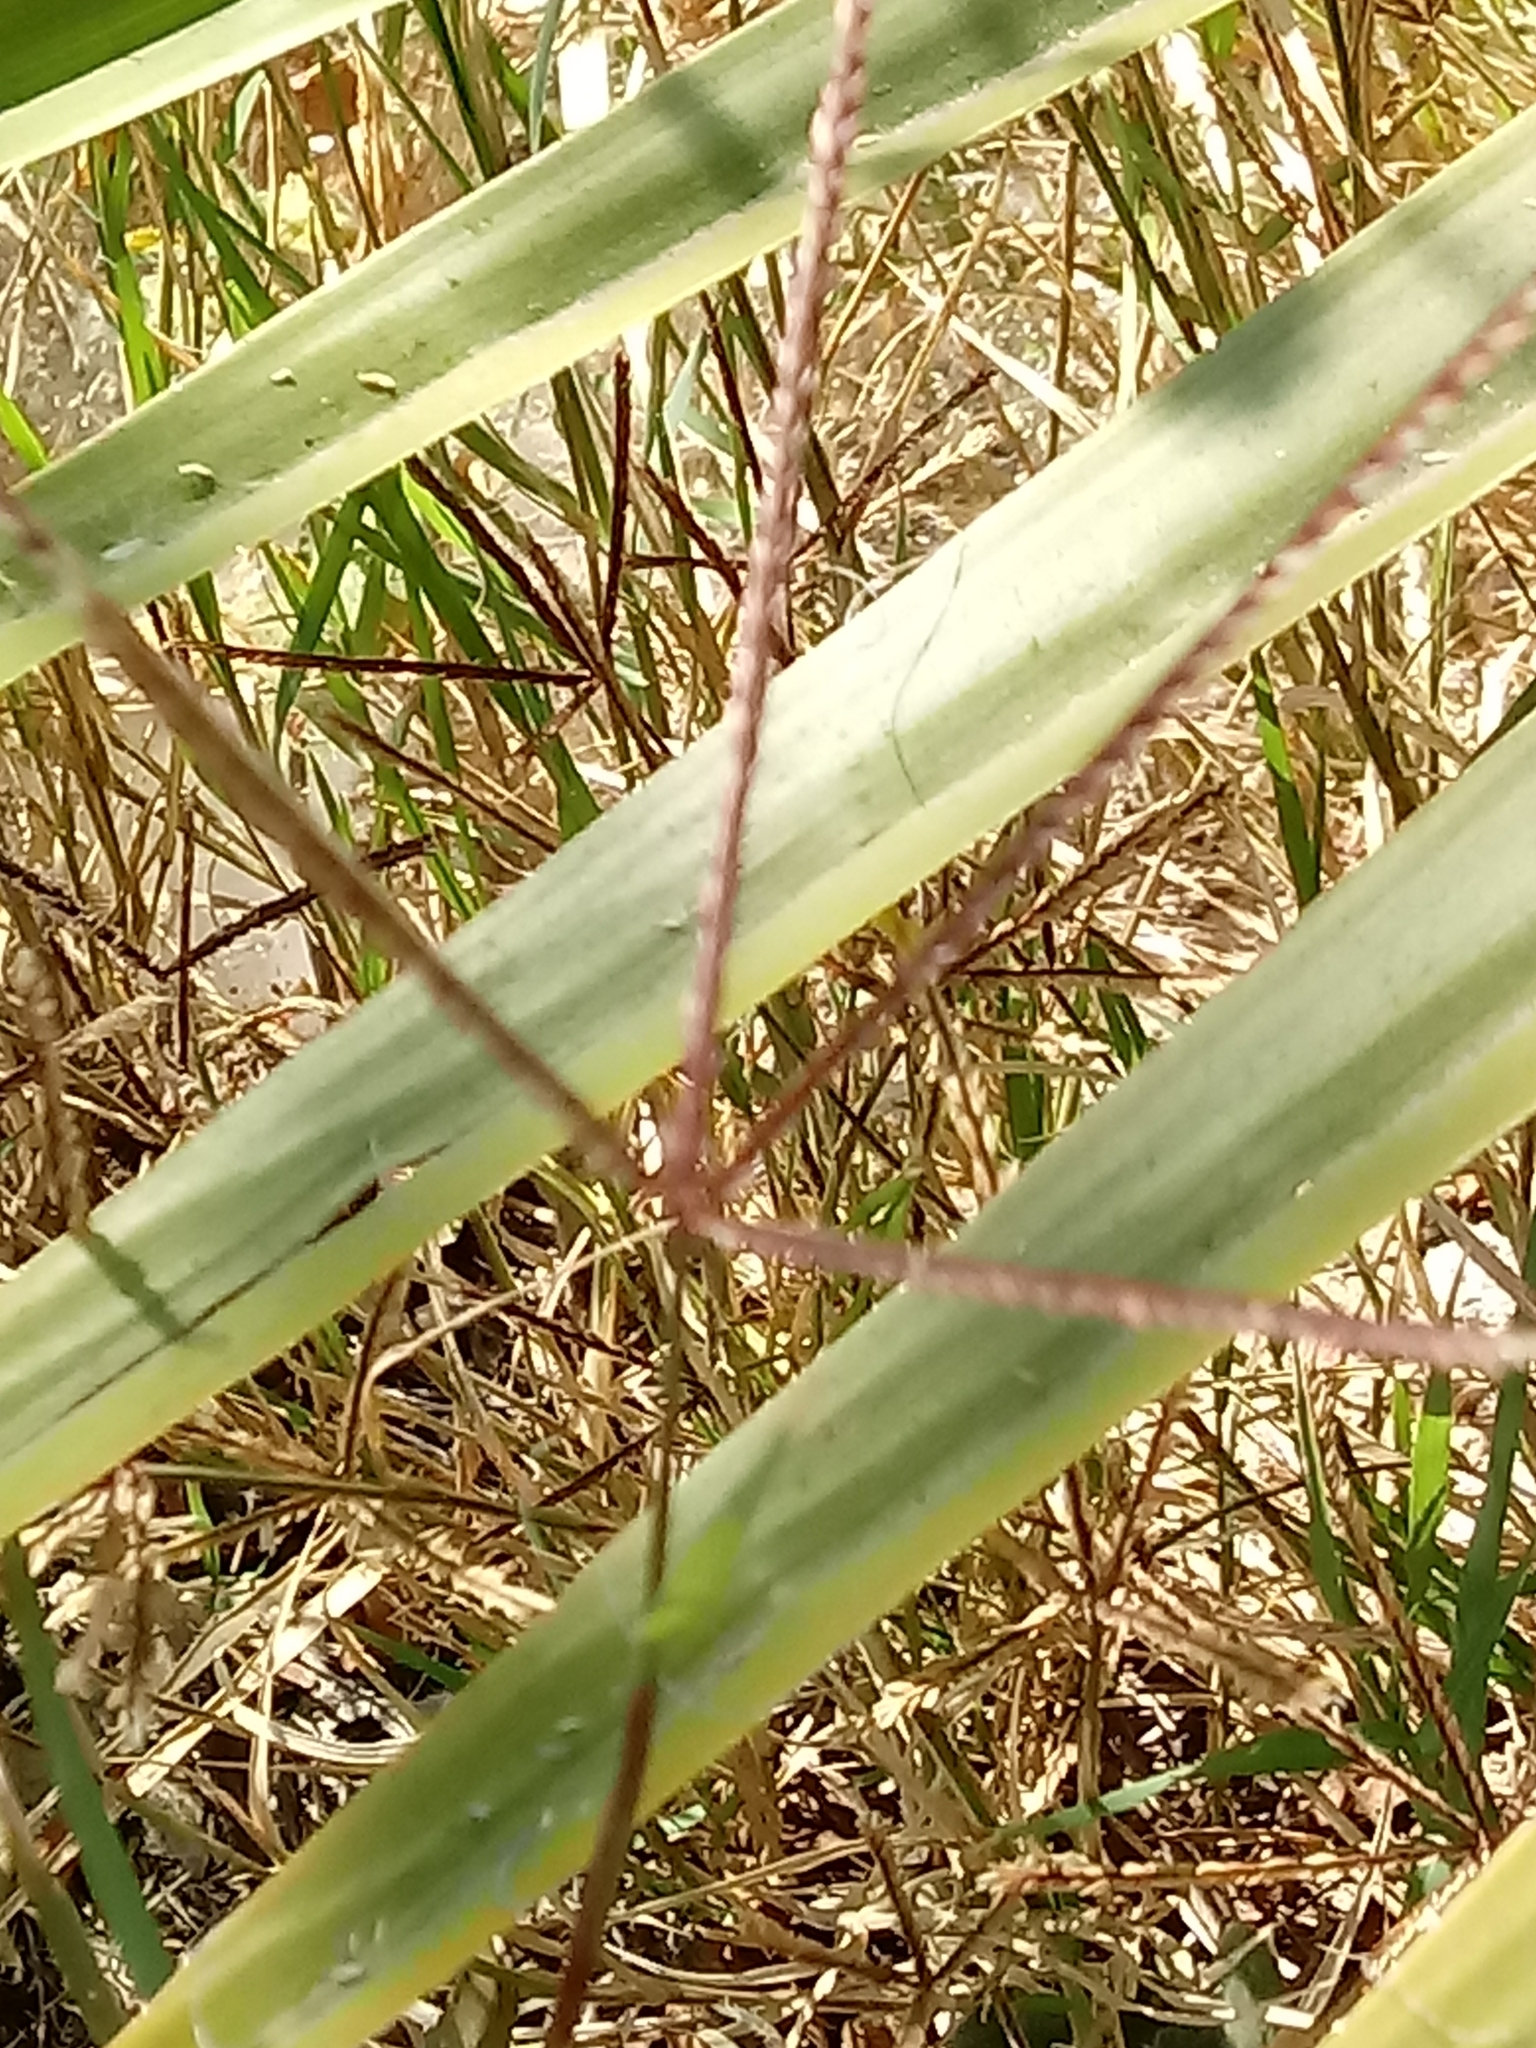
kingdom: Plantae
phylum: Tracheophyta
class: Liliopsida
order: Poales
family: Poaceae
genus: Cynodon
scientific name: Cynodon dactylon
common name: Bermuda grass
